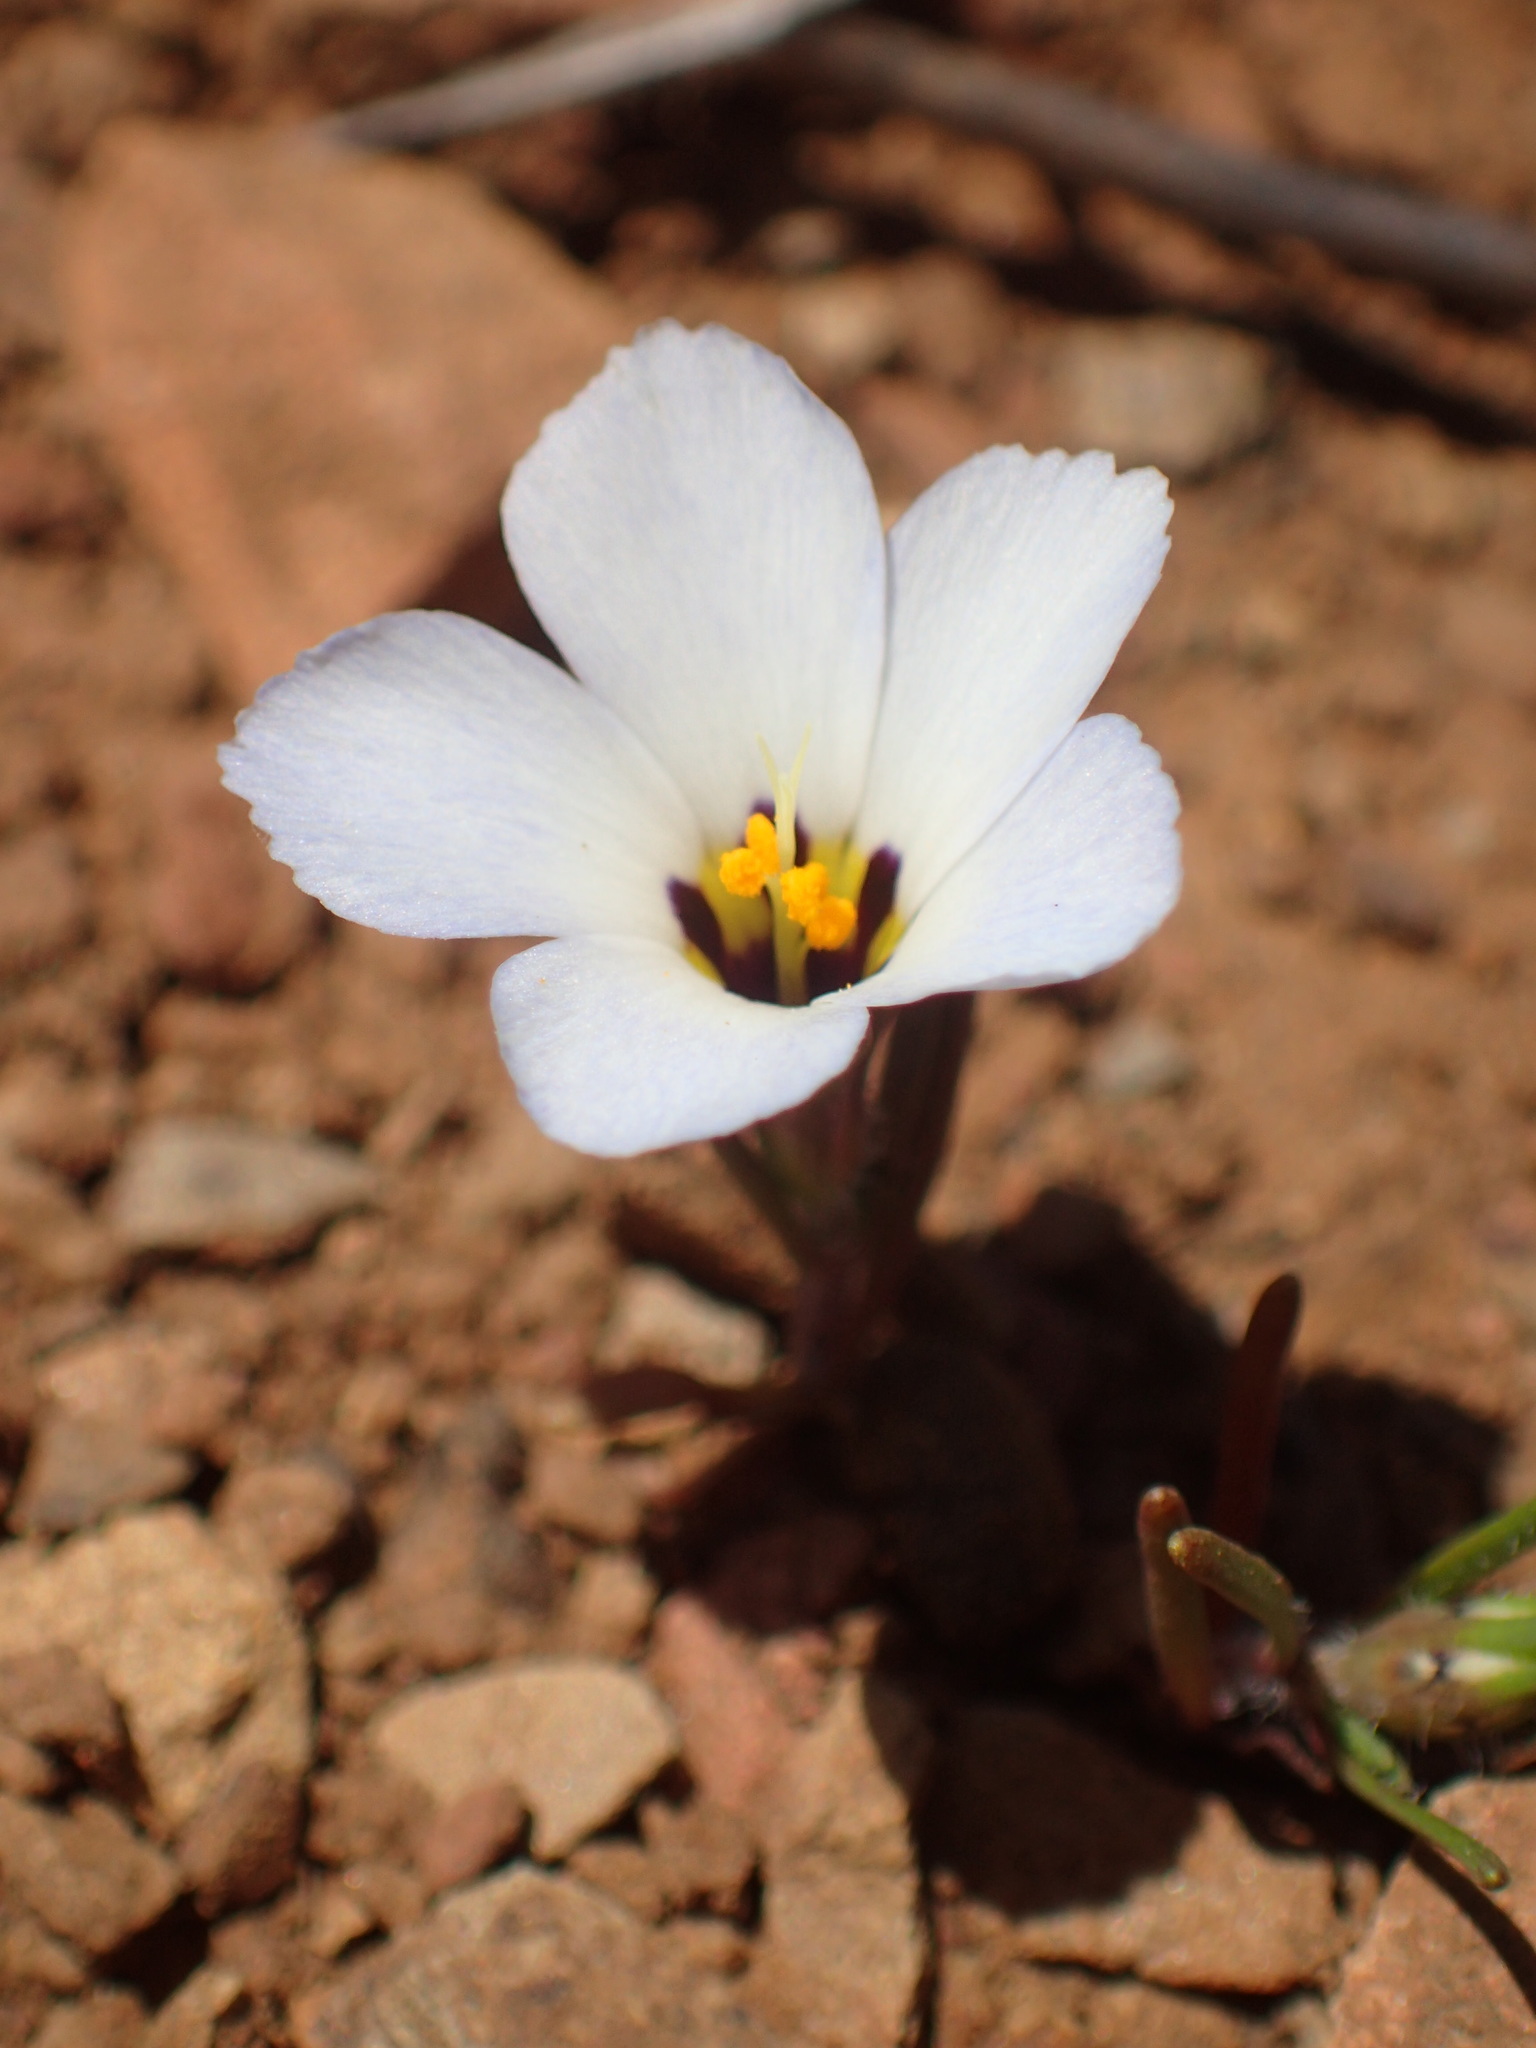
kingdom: Plantae
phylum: Tracheophyta
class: Magnoliopsida
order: Ericales
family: Polemoniaceae
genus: Linanthus
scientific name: Linanthus dianthiflorus
